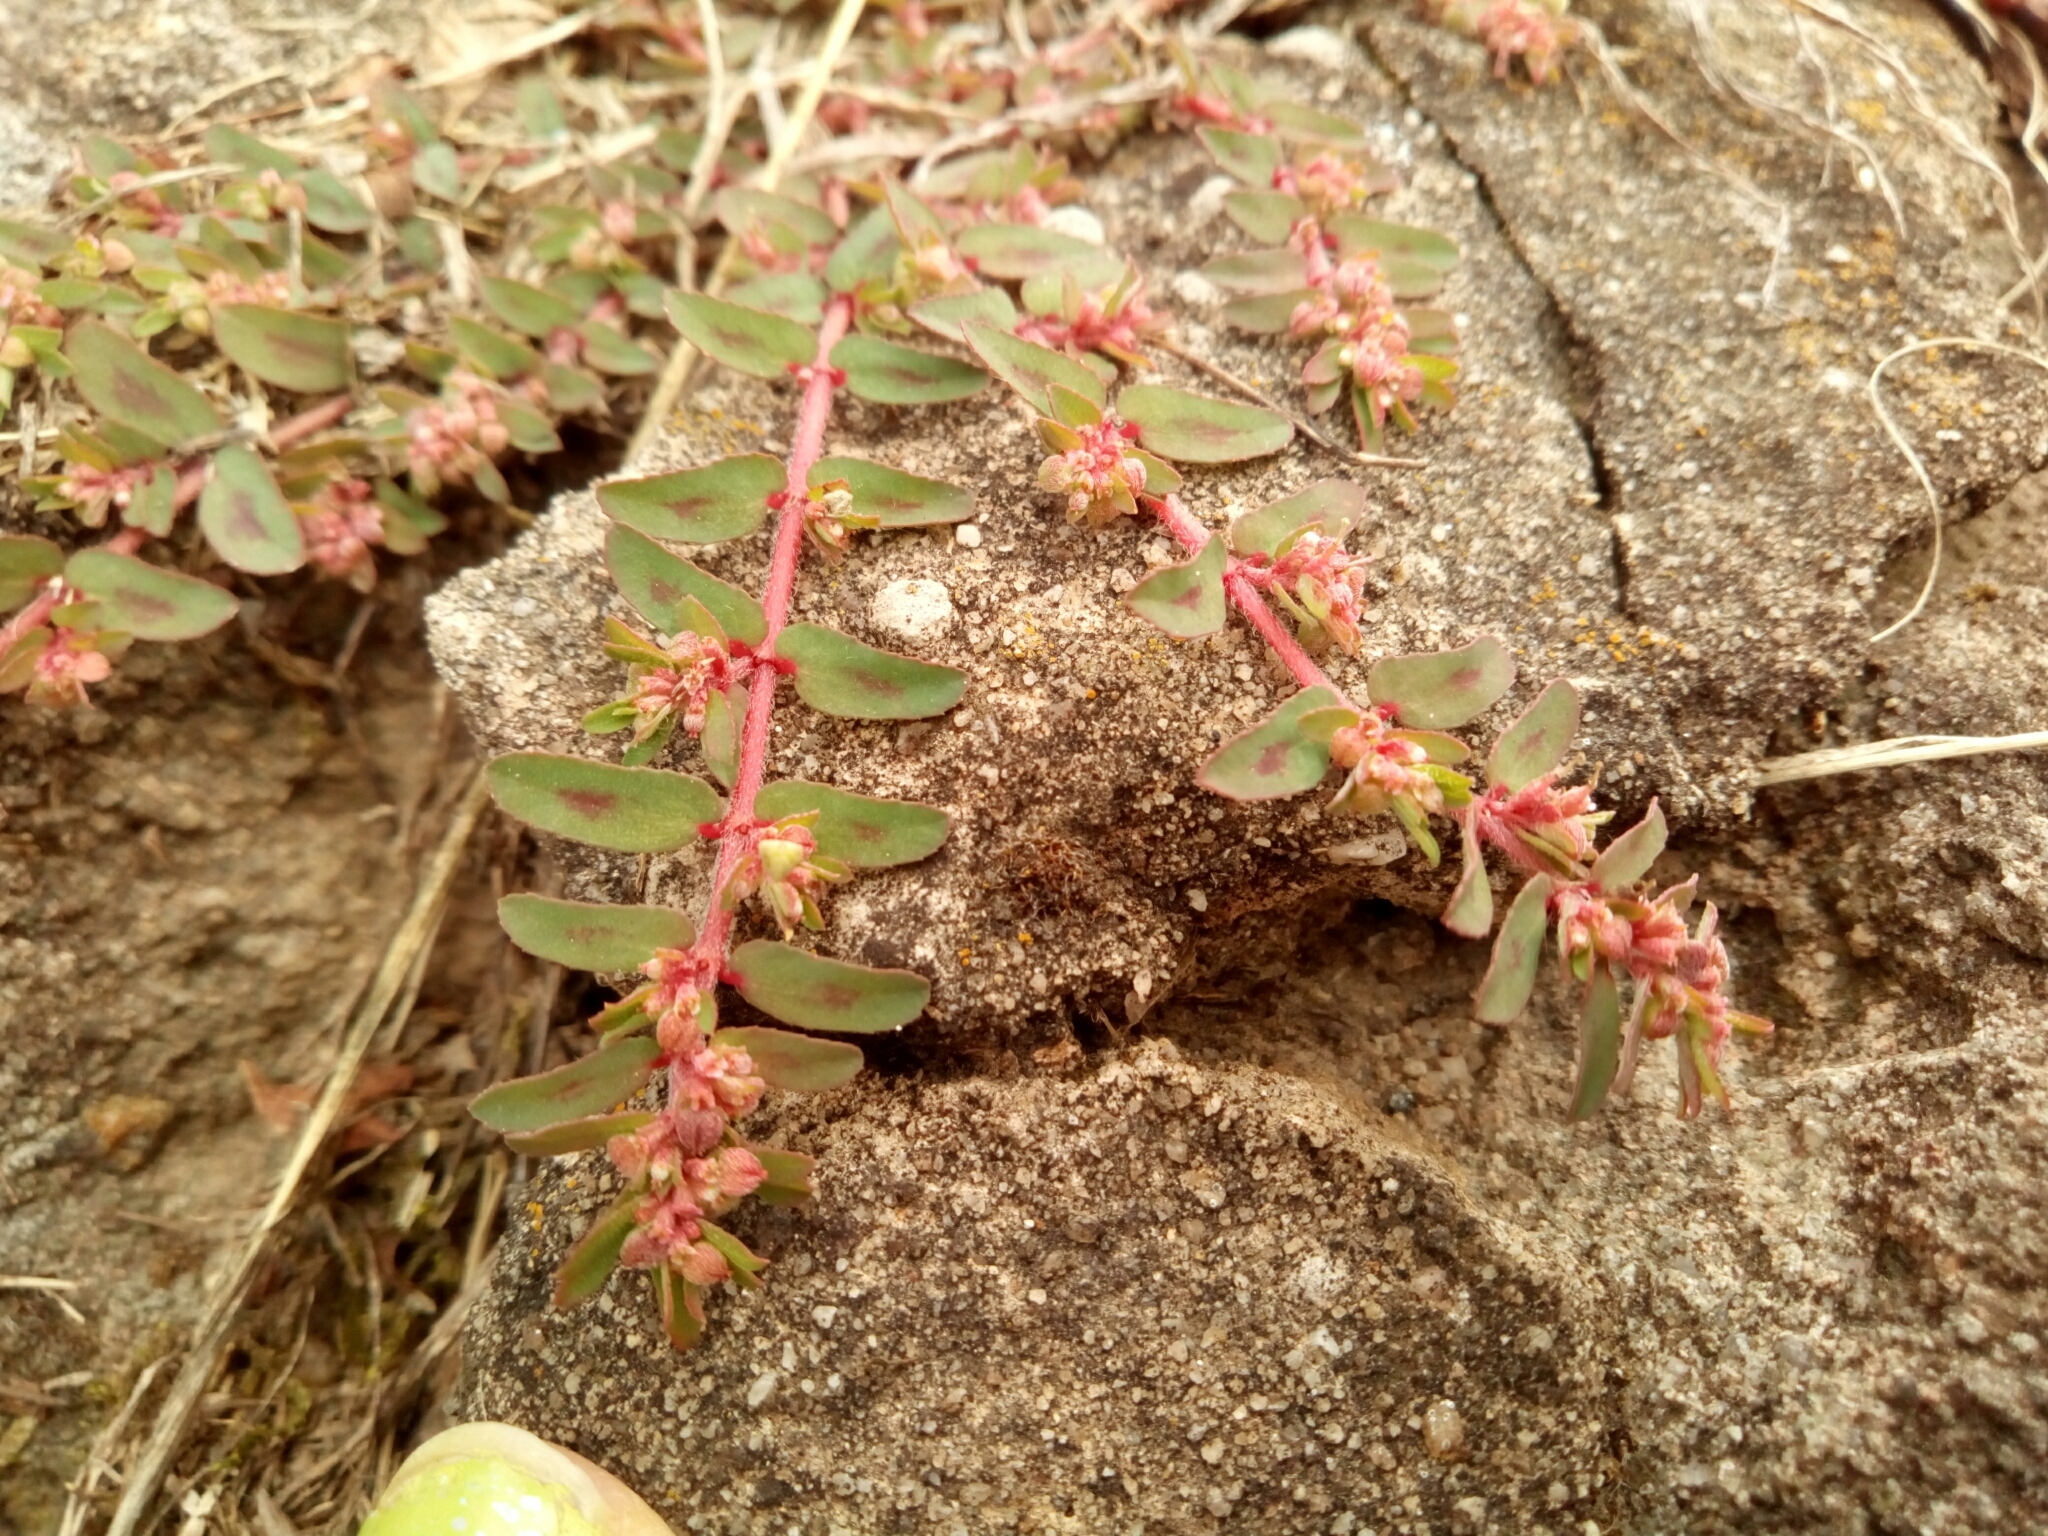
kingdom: Plantae
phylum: Tracheophyta
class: Magnoliopsida
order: Malpighiales
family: Euphorbiaceae
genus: Euphorbia
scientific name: Euphorbia maculata
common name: Spotted spurge
